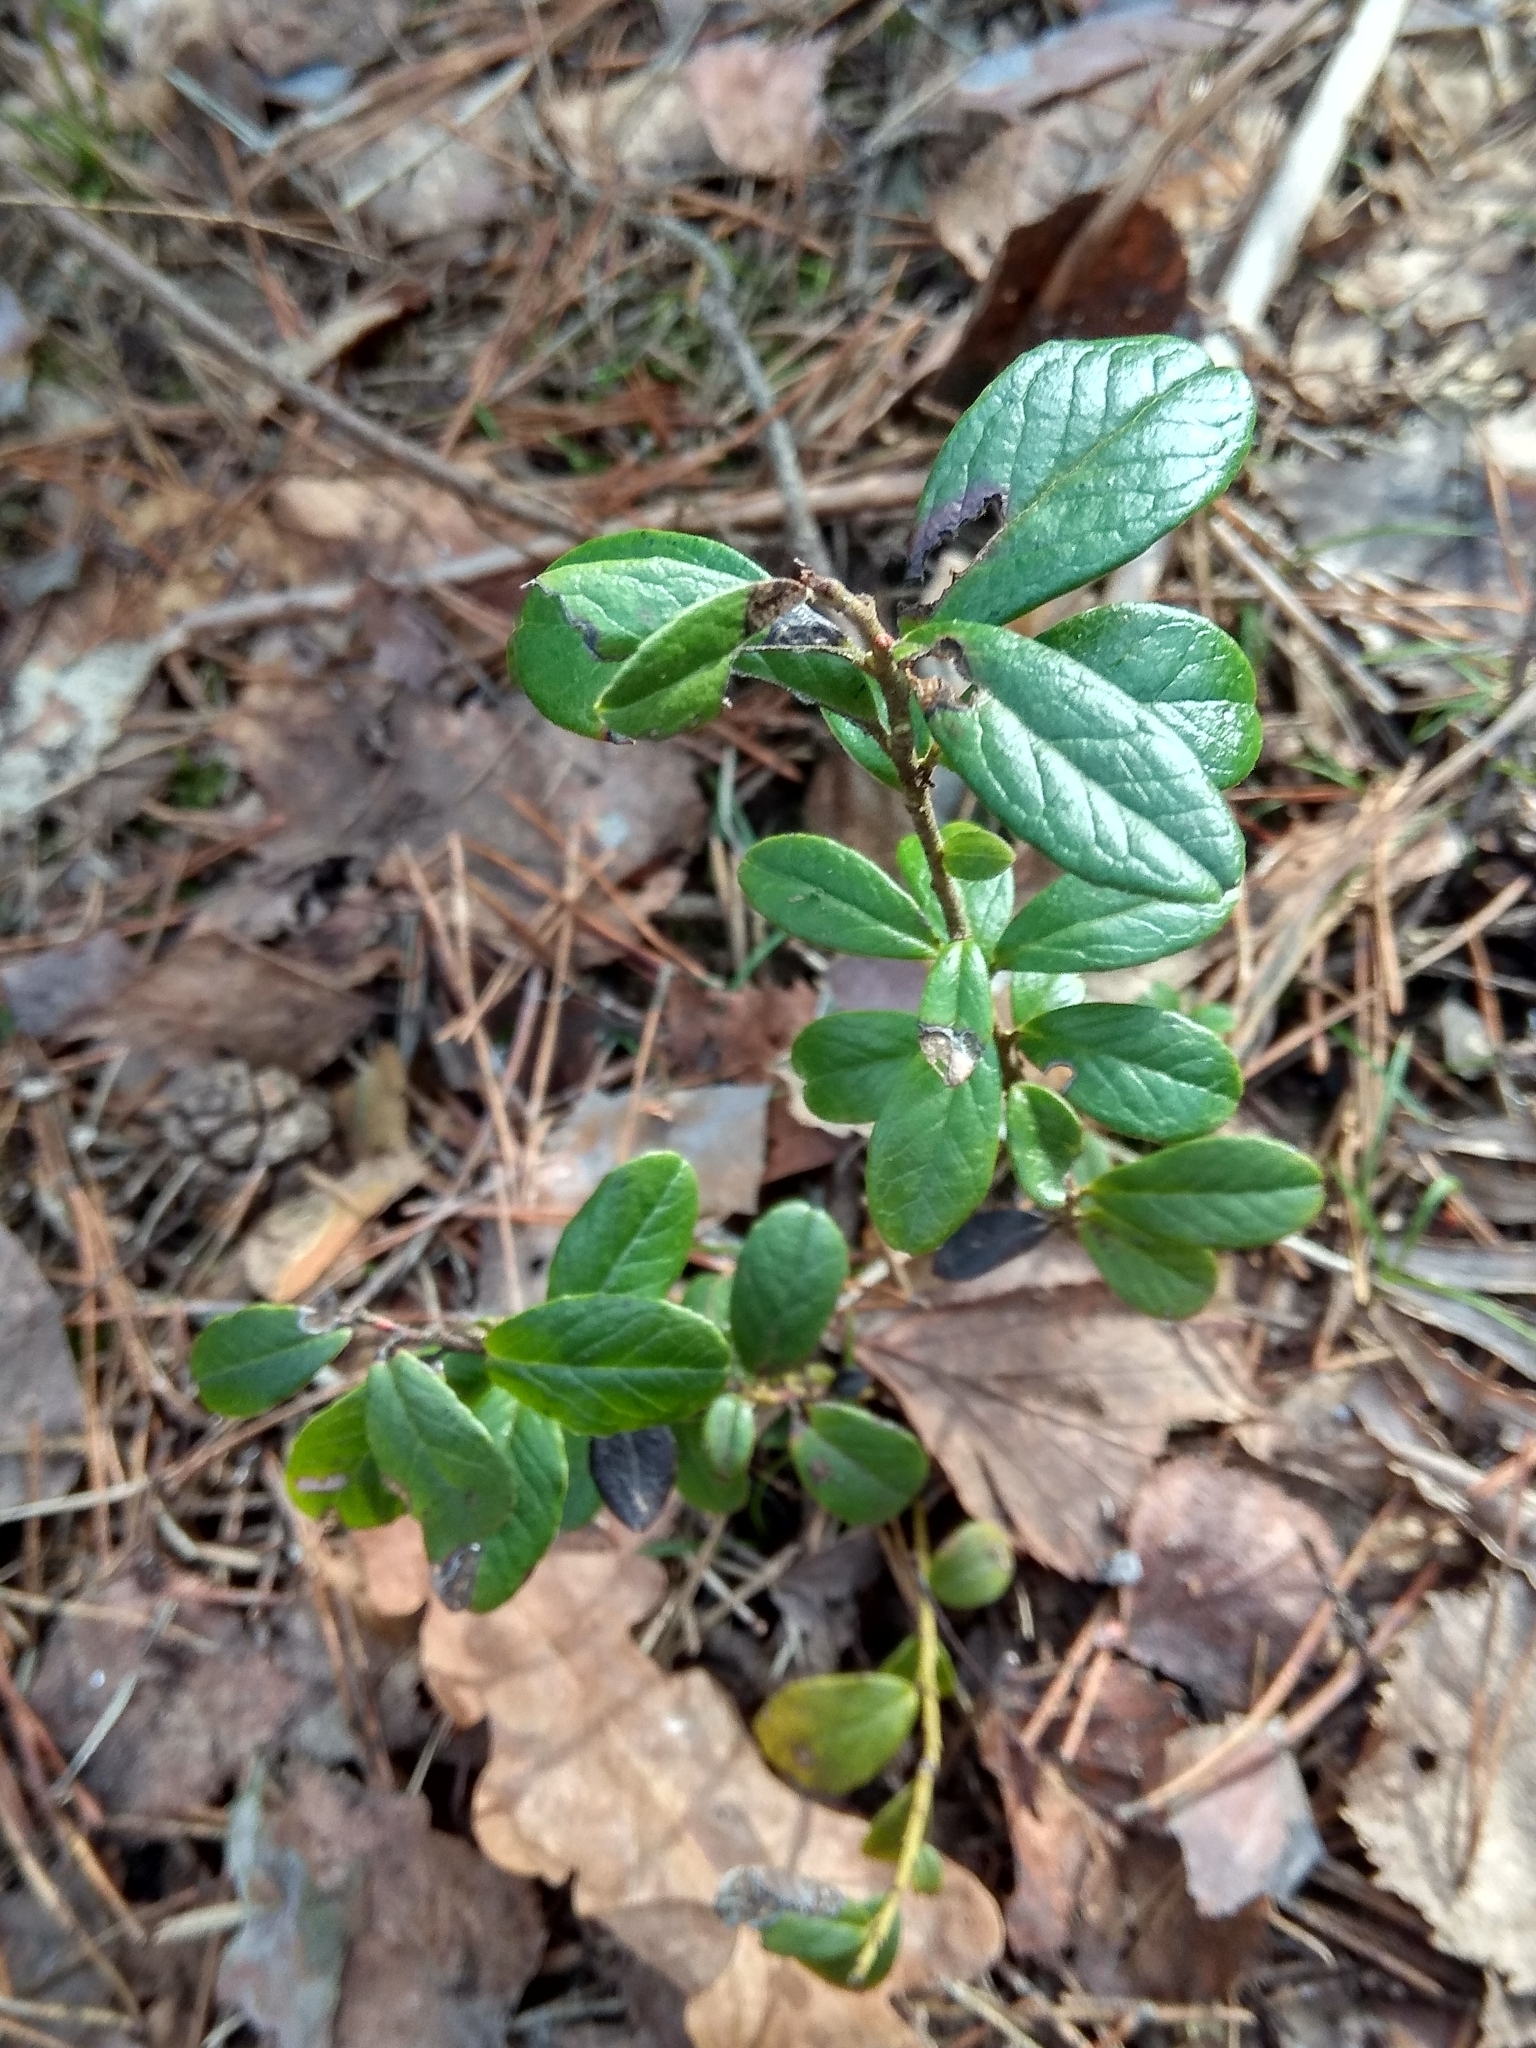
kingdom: Plantae
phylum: Tracheophyta
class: Magnoliopsida
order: Ericales
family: Ericaceae
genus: Vaccinium
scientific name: Vaccinium vitis-idaea
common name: Cowberry
